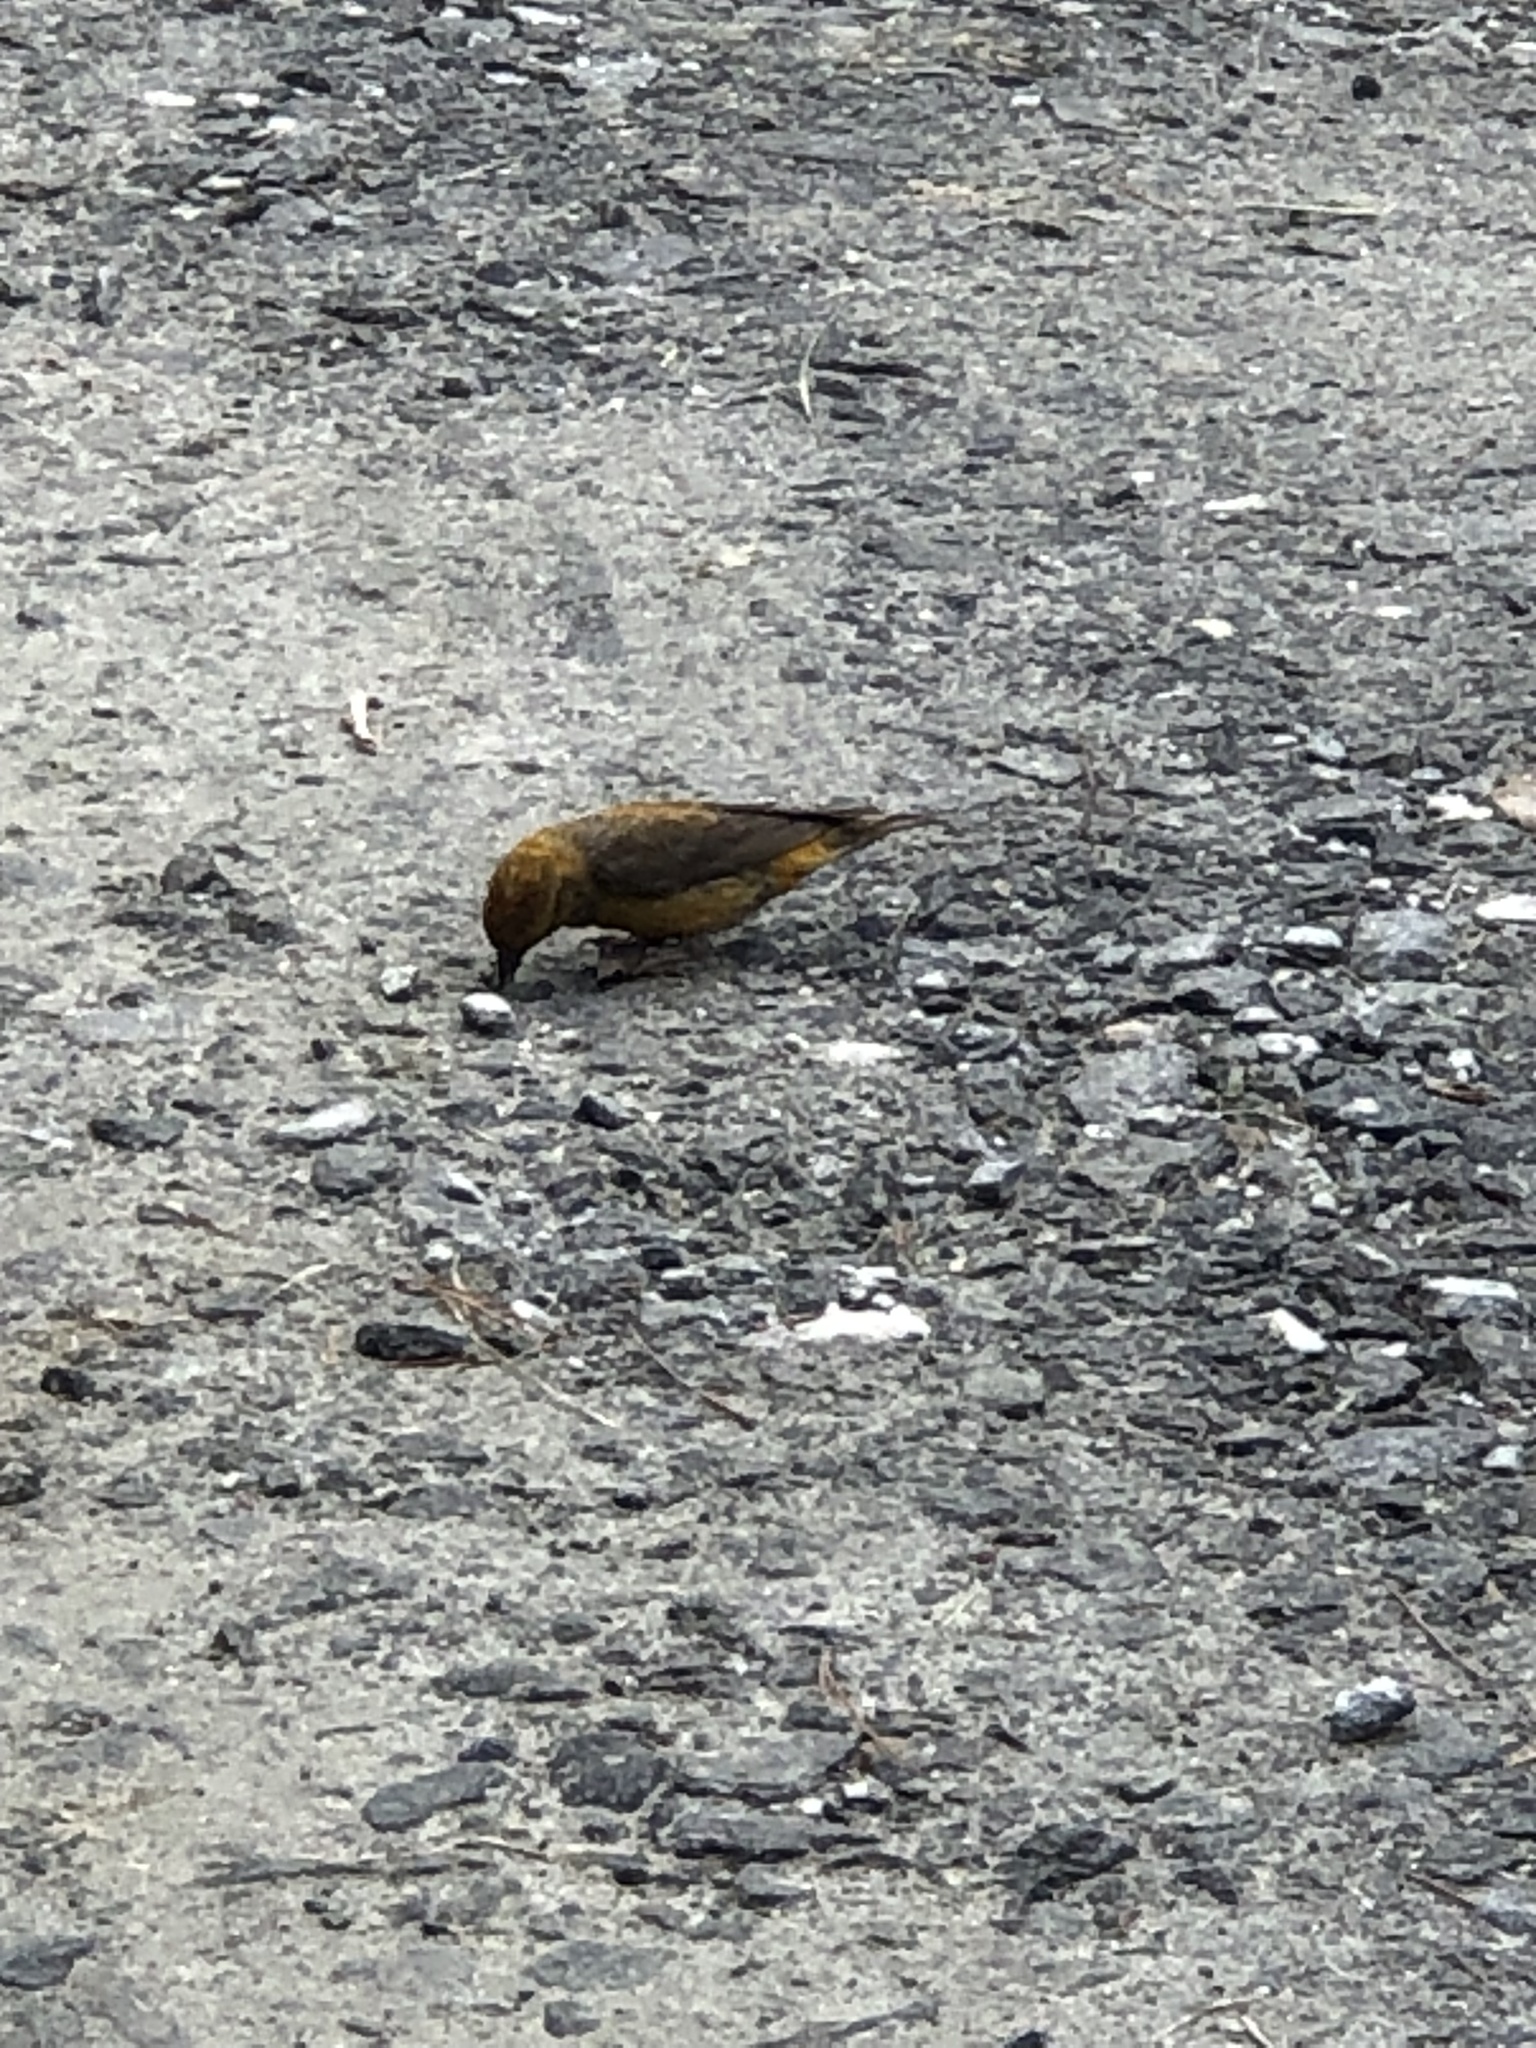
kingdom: Animalia
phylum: Chordata
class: Aves
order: Passeriformes
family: Fringillidae
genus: Loxia
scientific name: Loxia curvirostra
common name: Red crossbill
